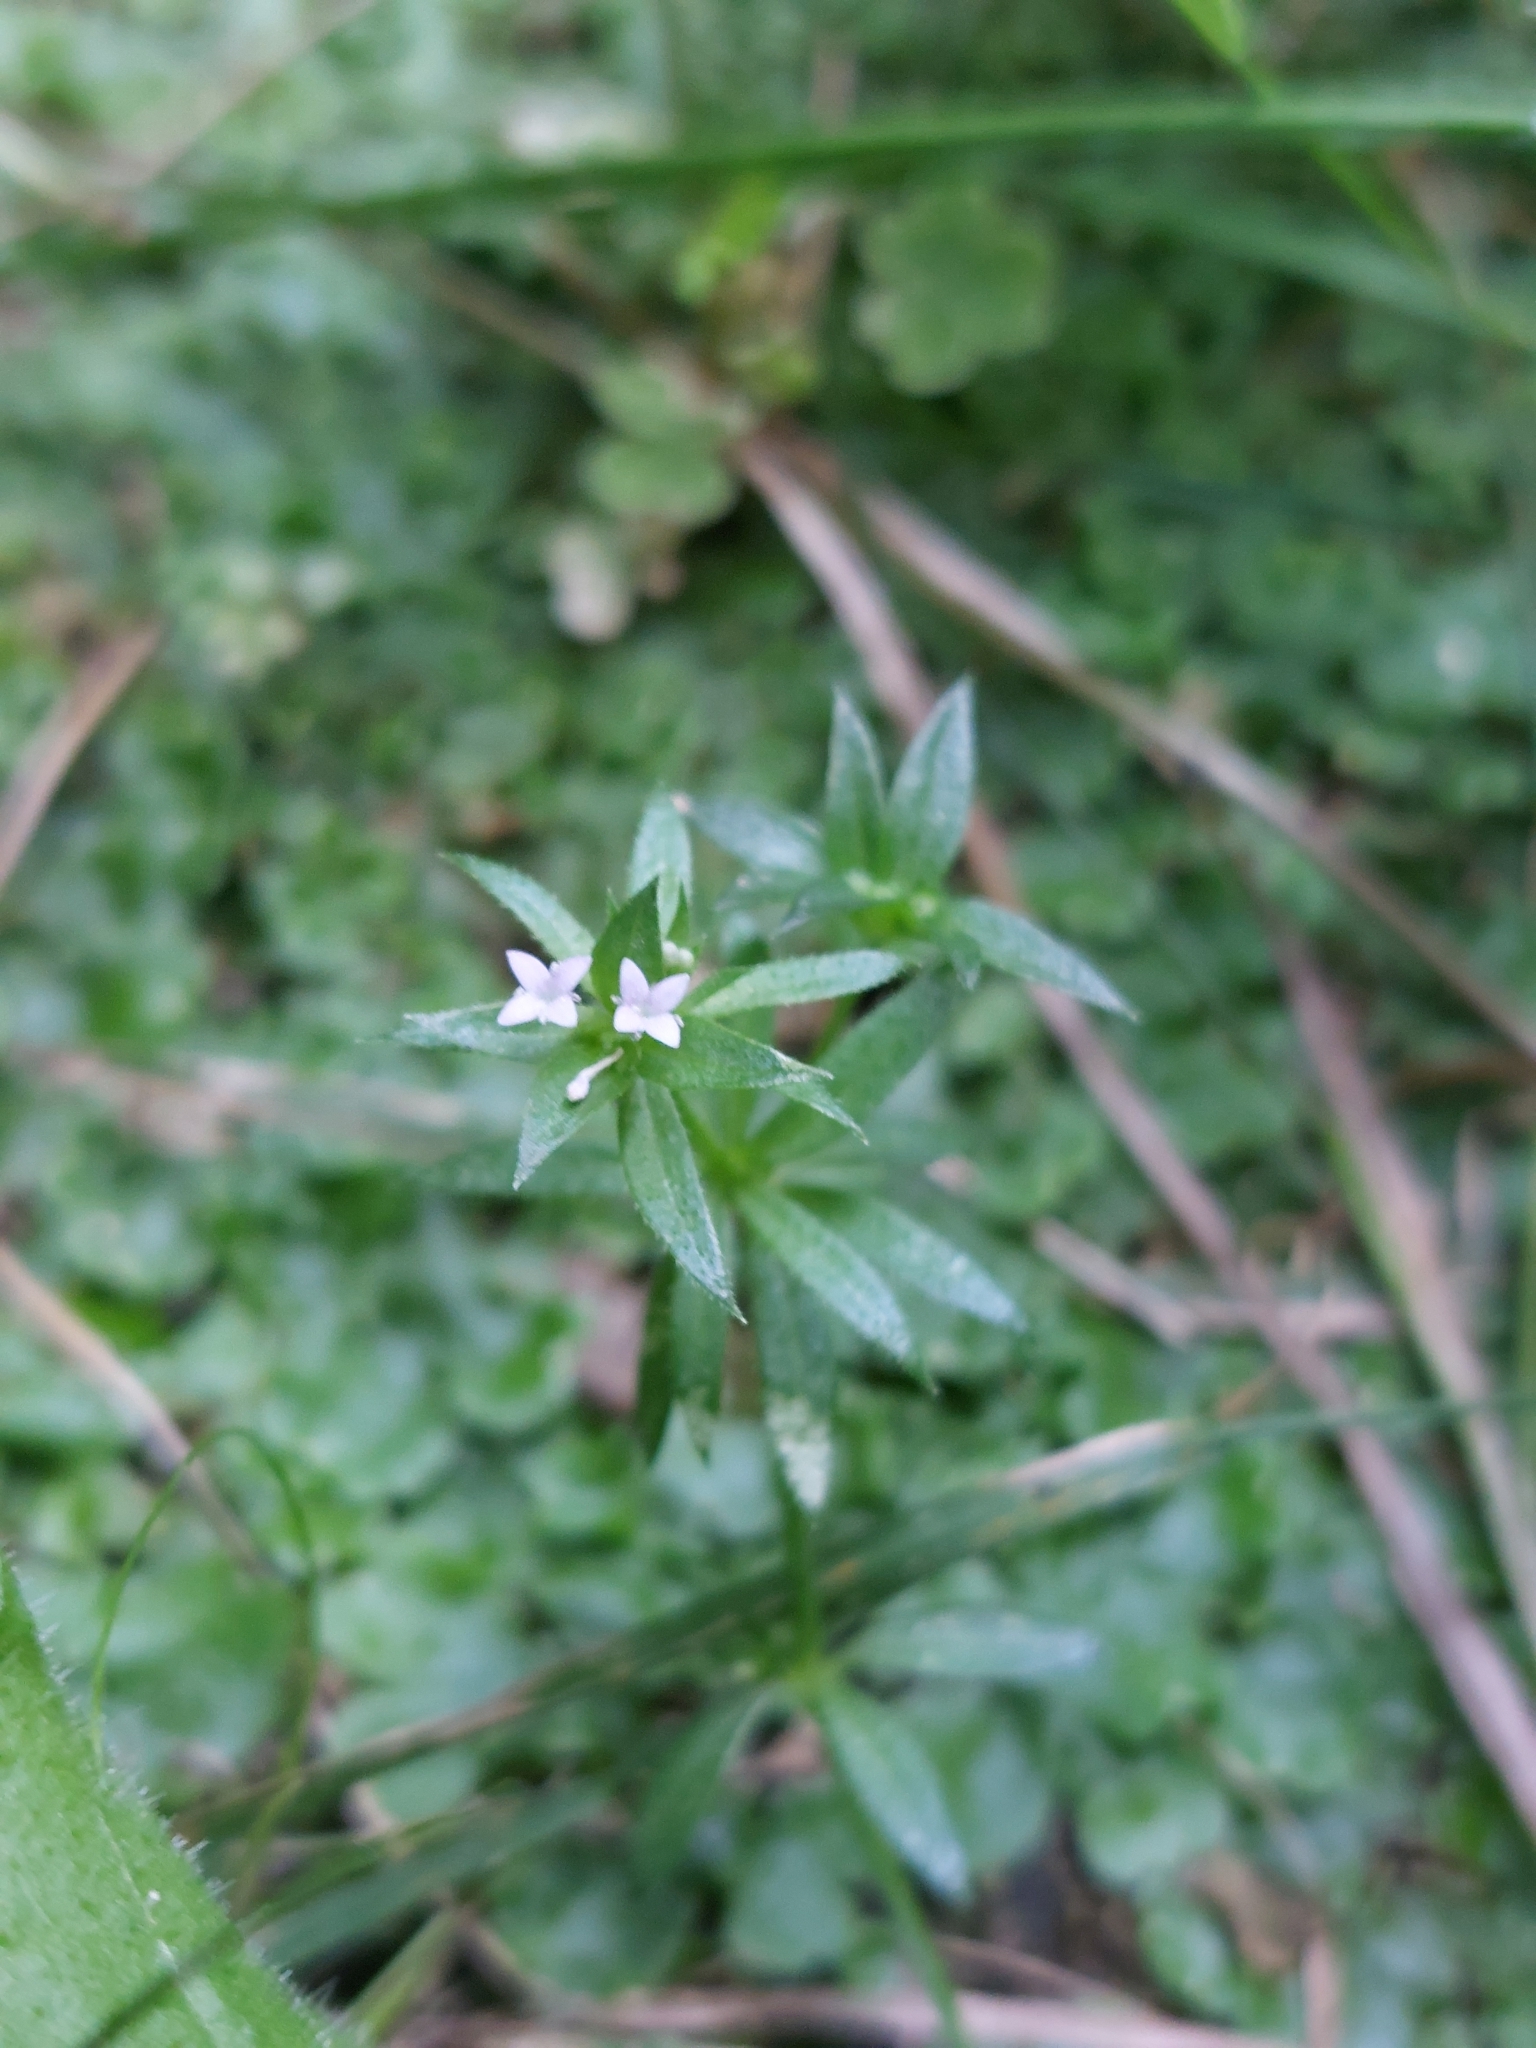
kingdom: Plantae
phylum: Tracheophyta
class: Magnoliopsida
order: Gentianales
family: Rubiaceae
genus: Sherardia
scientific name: Sherardia arvensis
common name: Field madder
